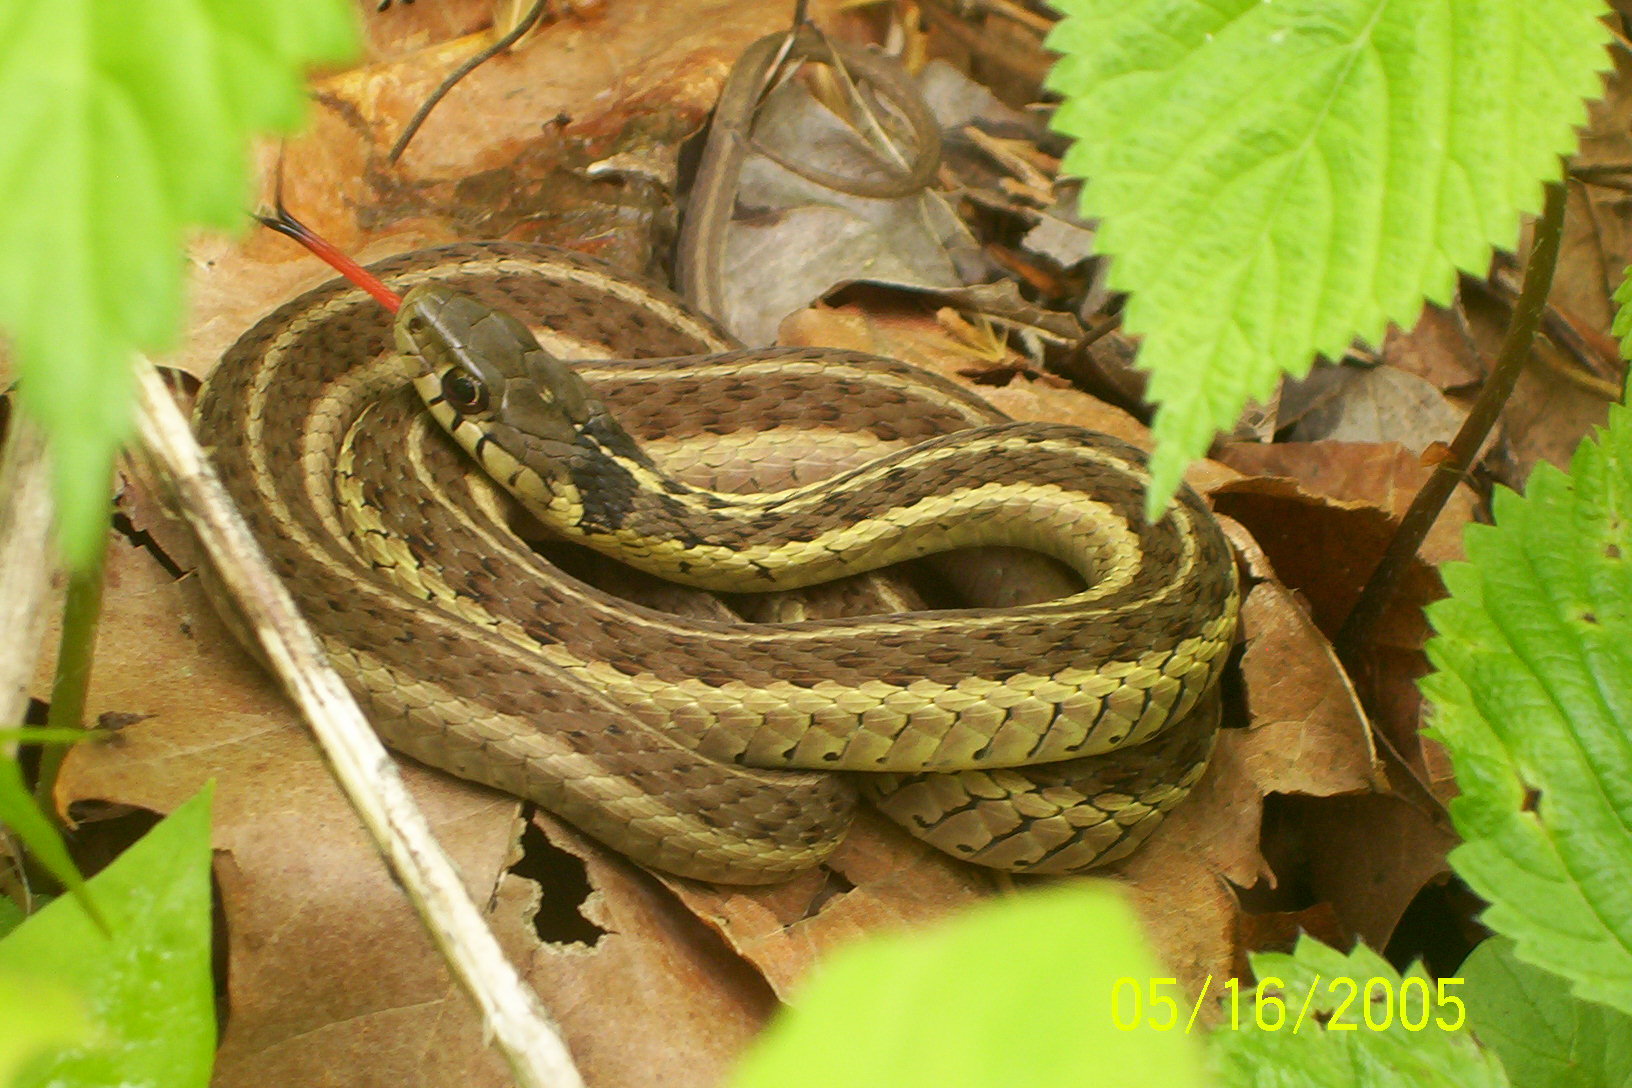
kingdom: Animalia
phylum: Chordata
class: Squamata
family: Colubridae
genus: Thamnophis
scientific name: Thamnophis sirtalis
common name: Common garter snake
